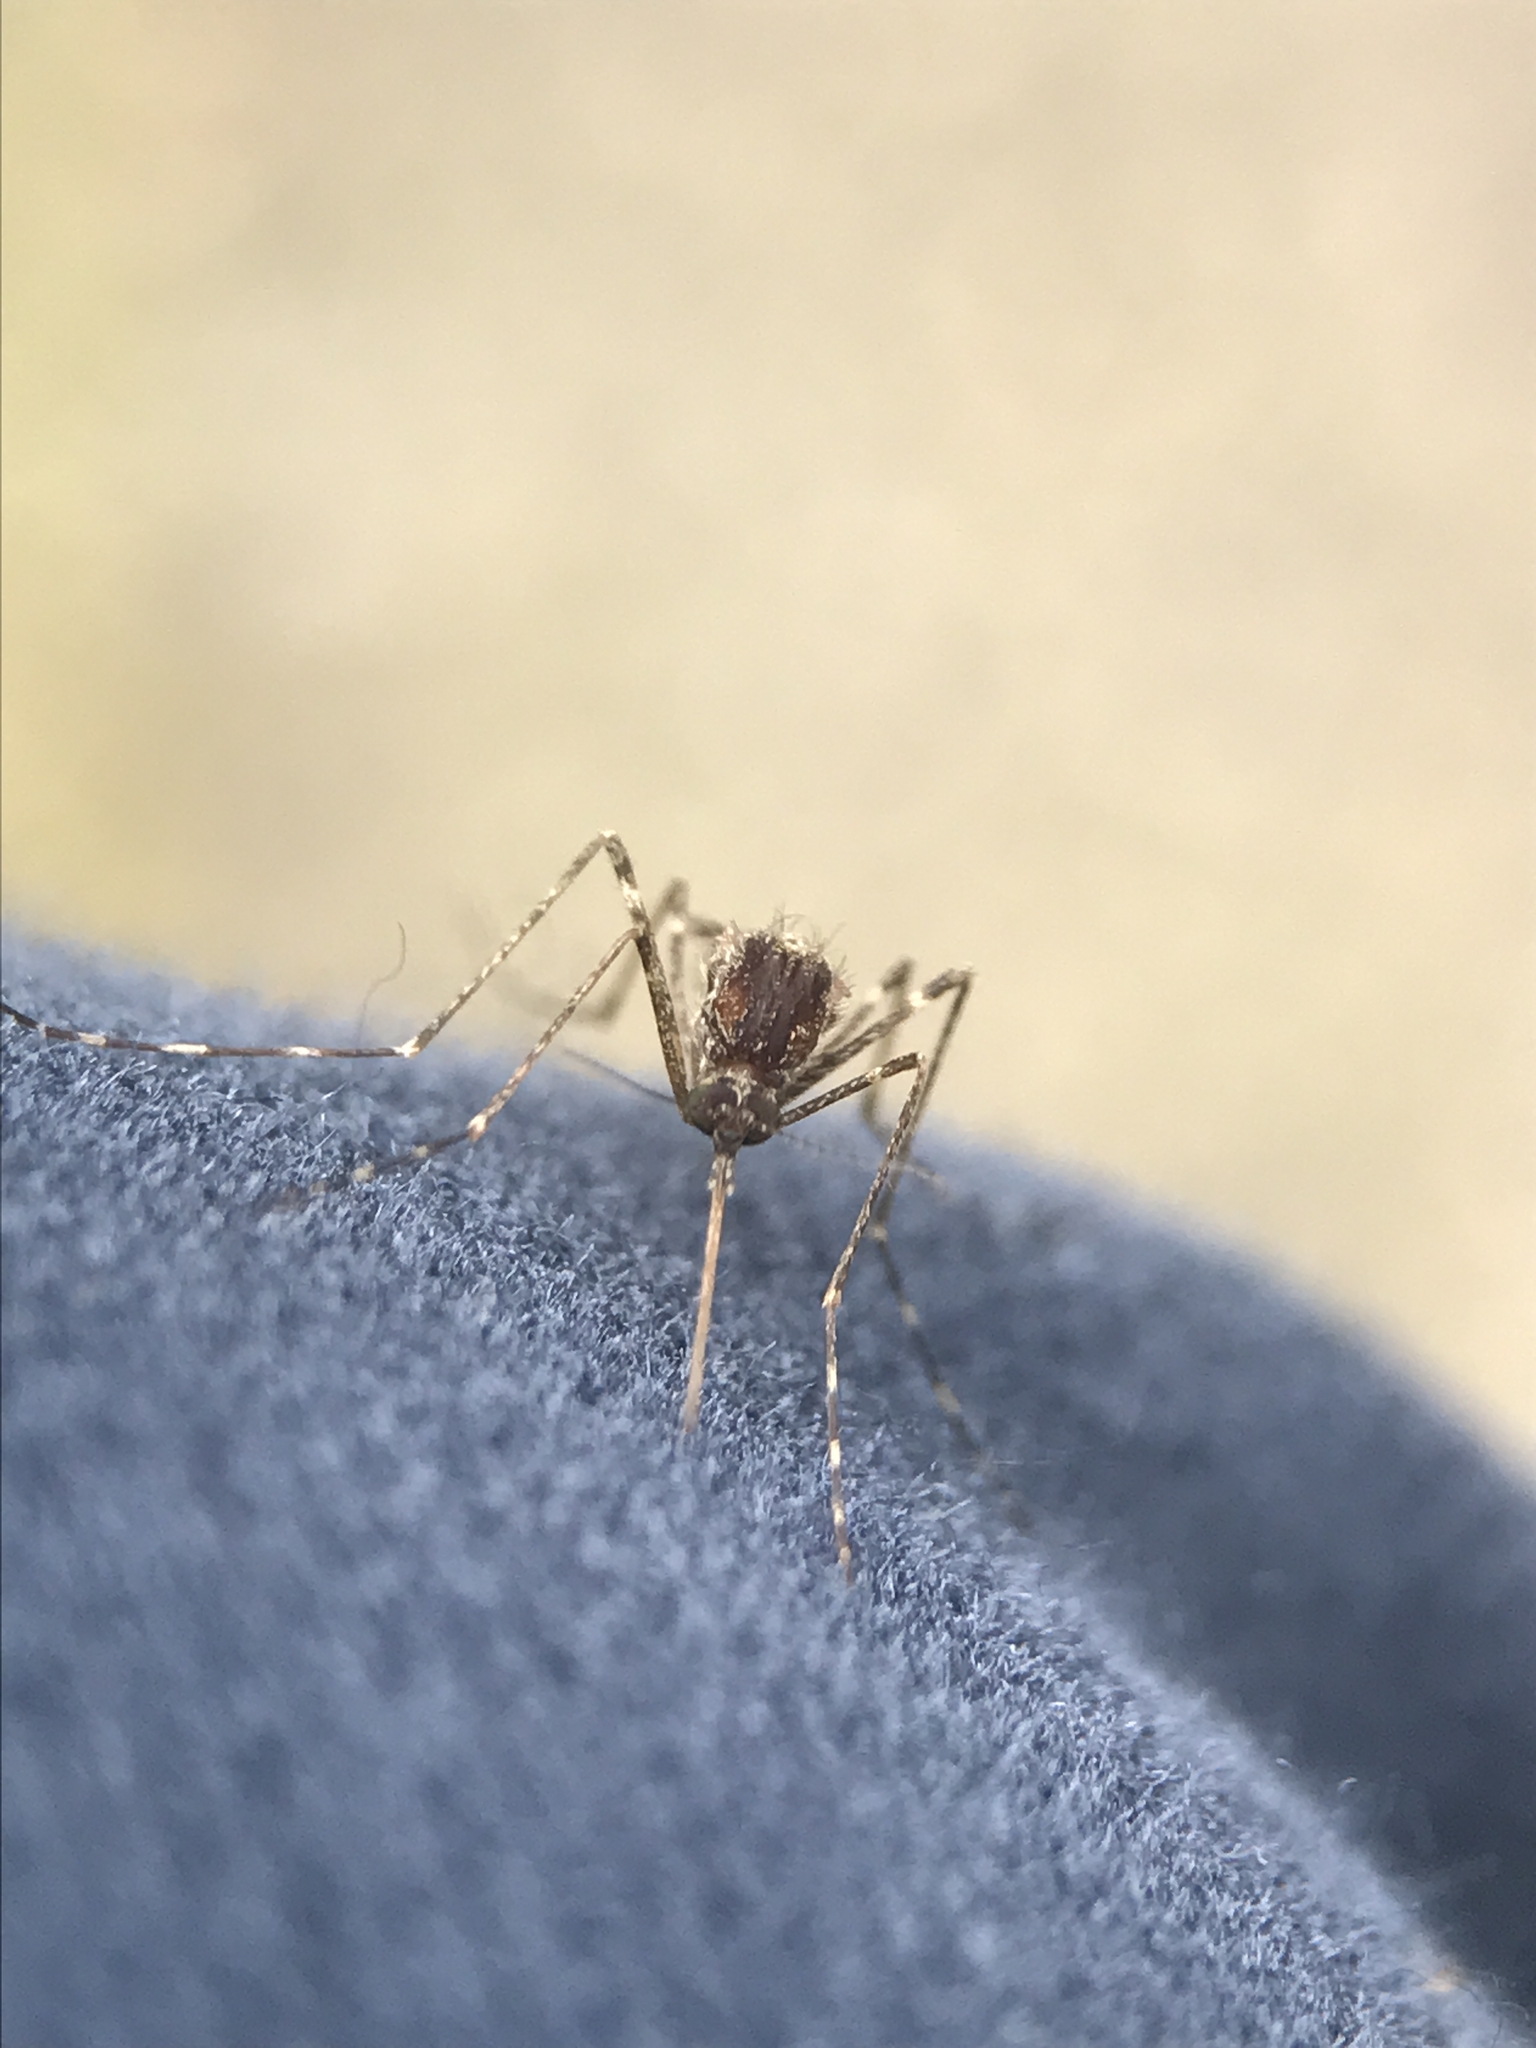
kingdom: Animalia
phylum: Arthropoda
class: Insecta
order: Diptera
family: Culicidae
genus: Culiseta
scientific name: Culiseta annulata
